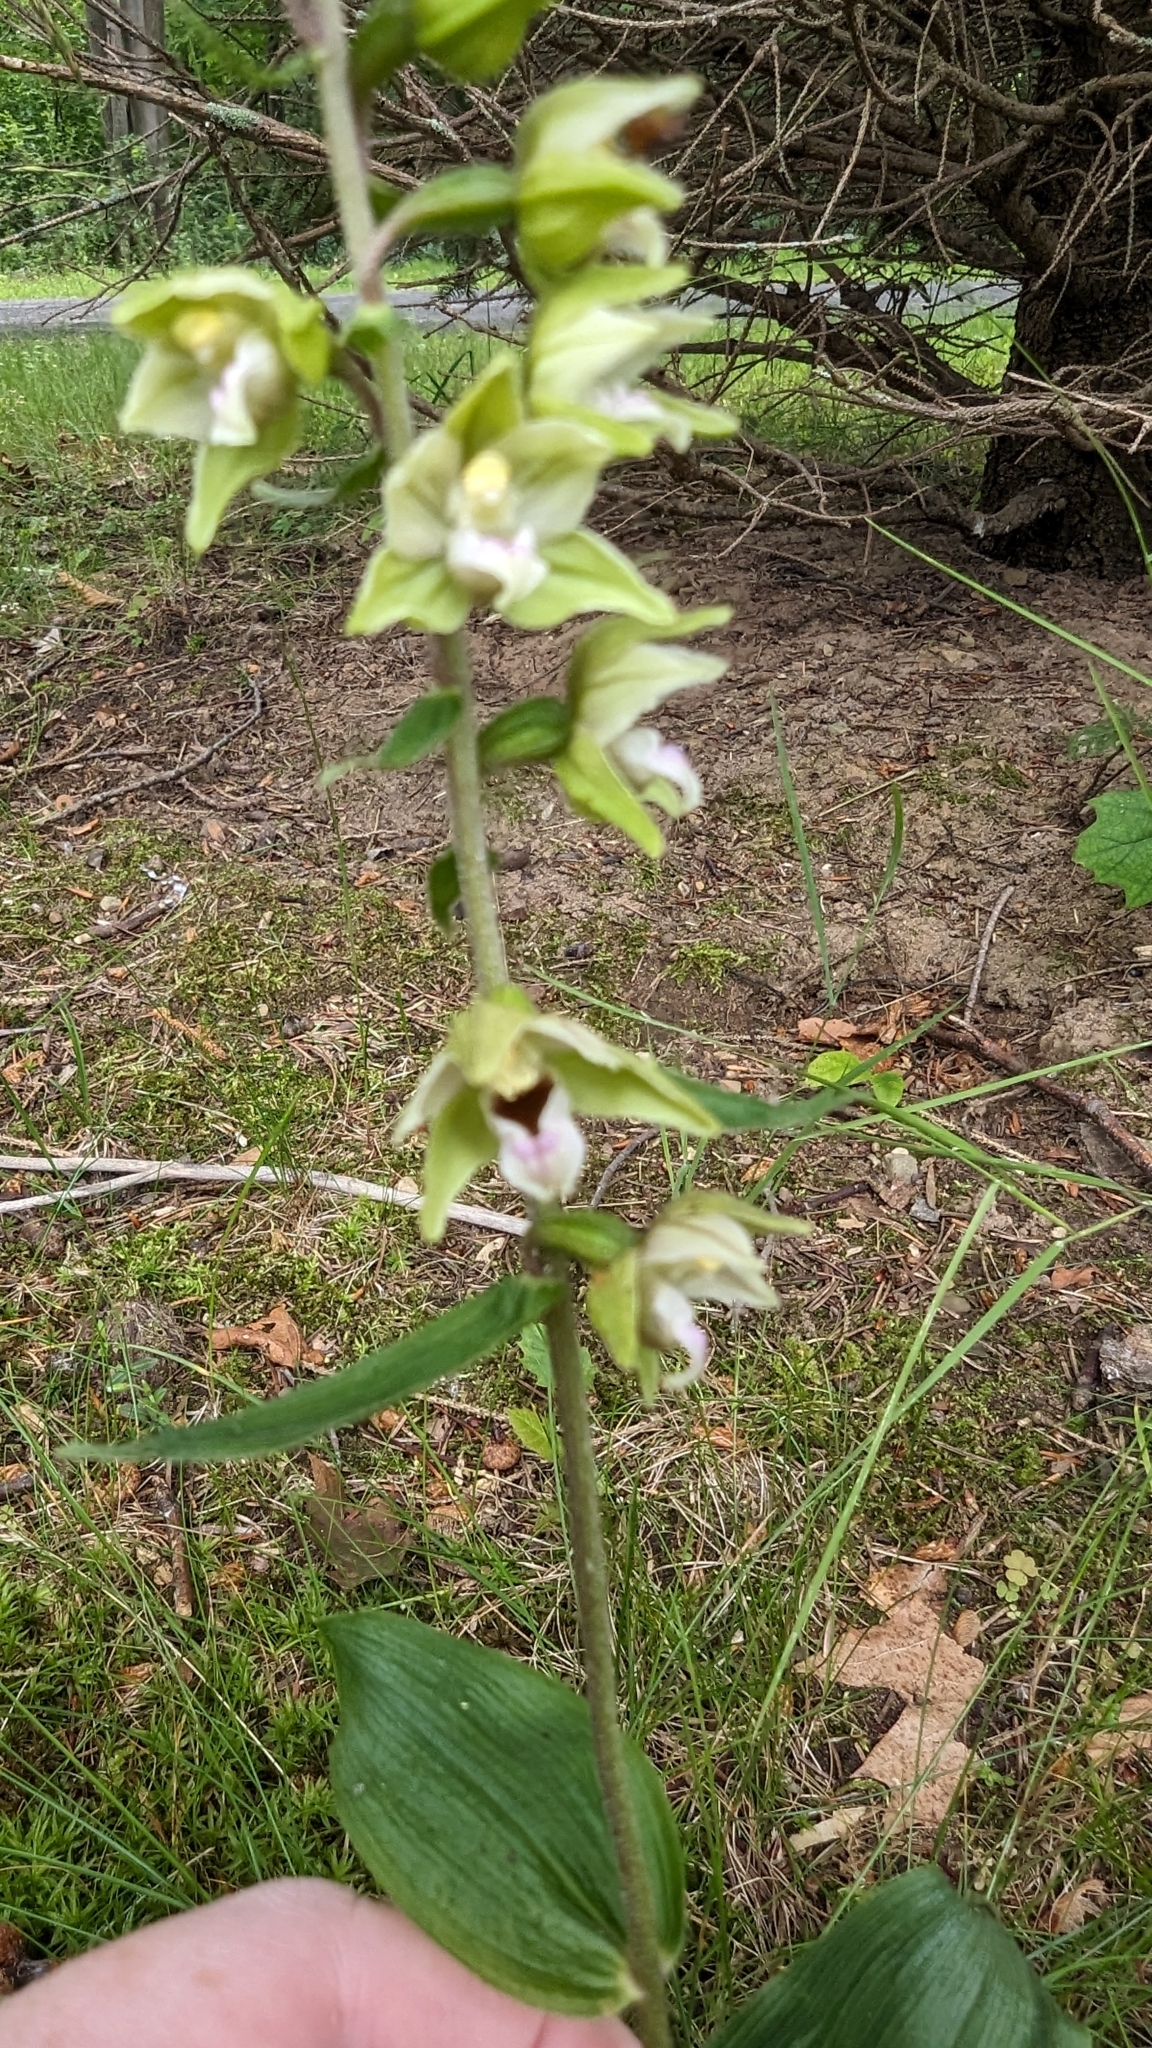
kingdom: Plantae
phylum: Tracheophyta
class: Liliopsida
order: Asparagales
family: Orchidaceae
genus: Epipactis
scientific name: Epipactis helleborine
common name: Broad-leaved helleborine
